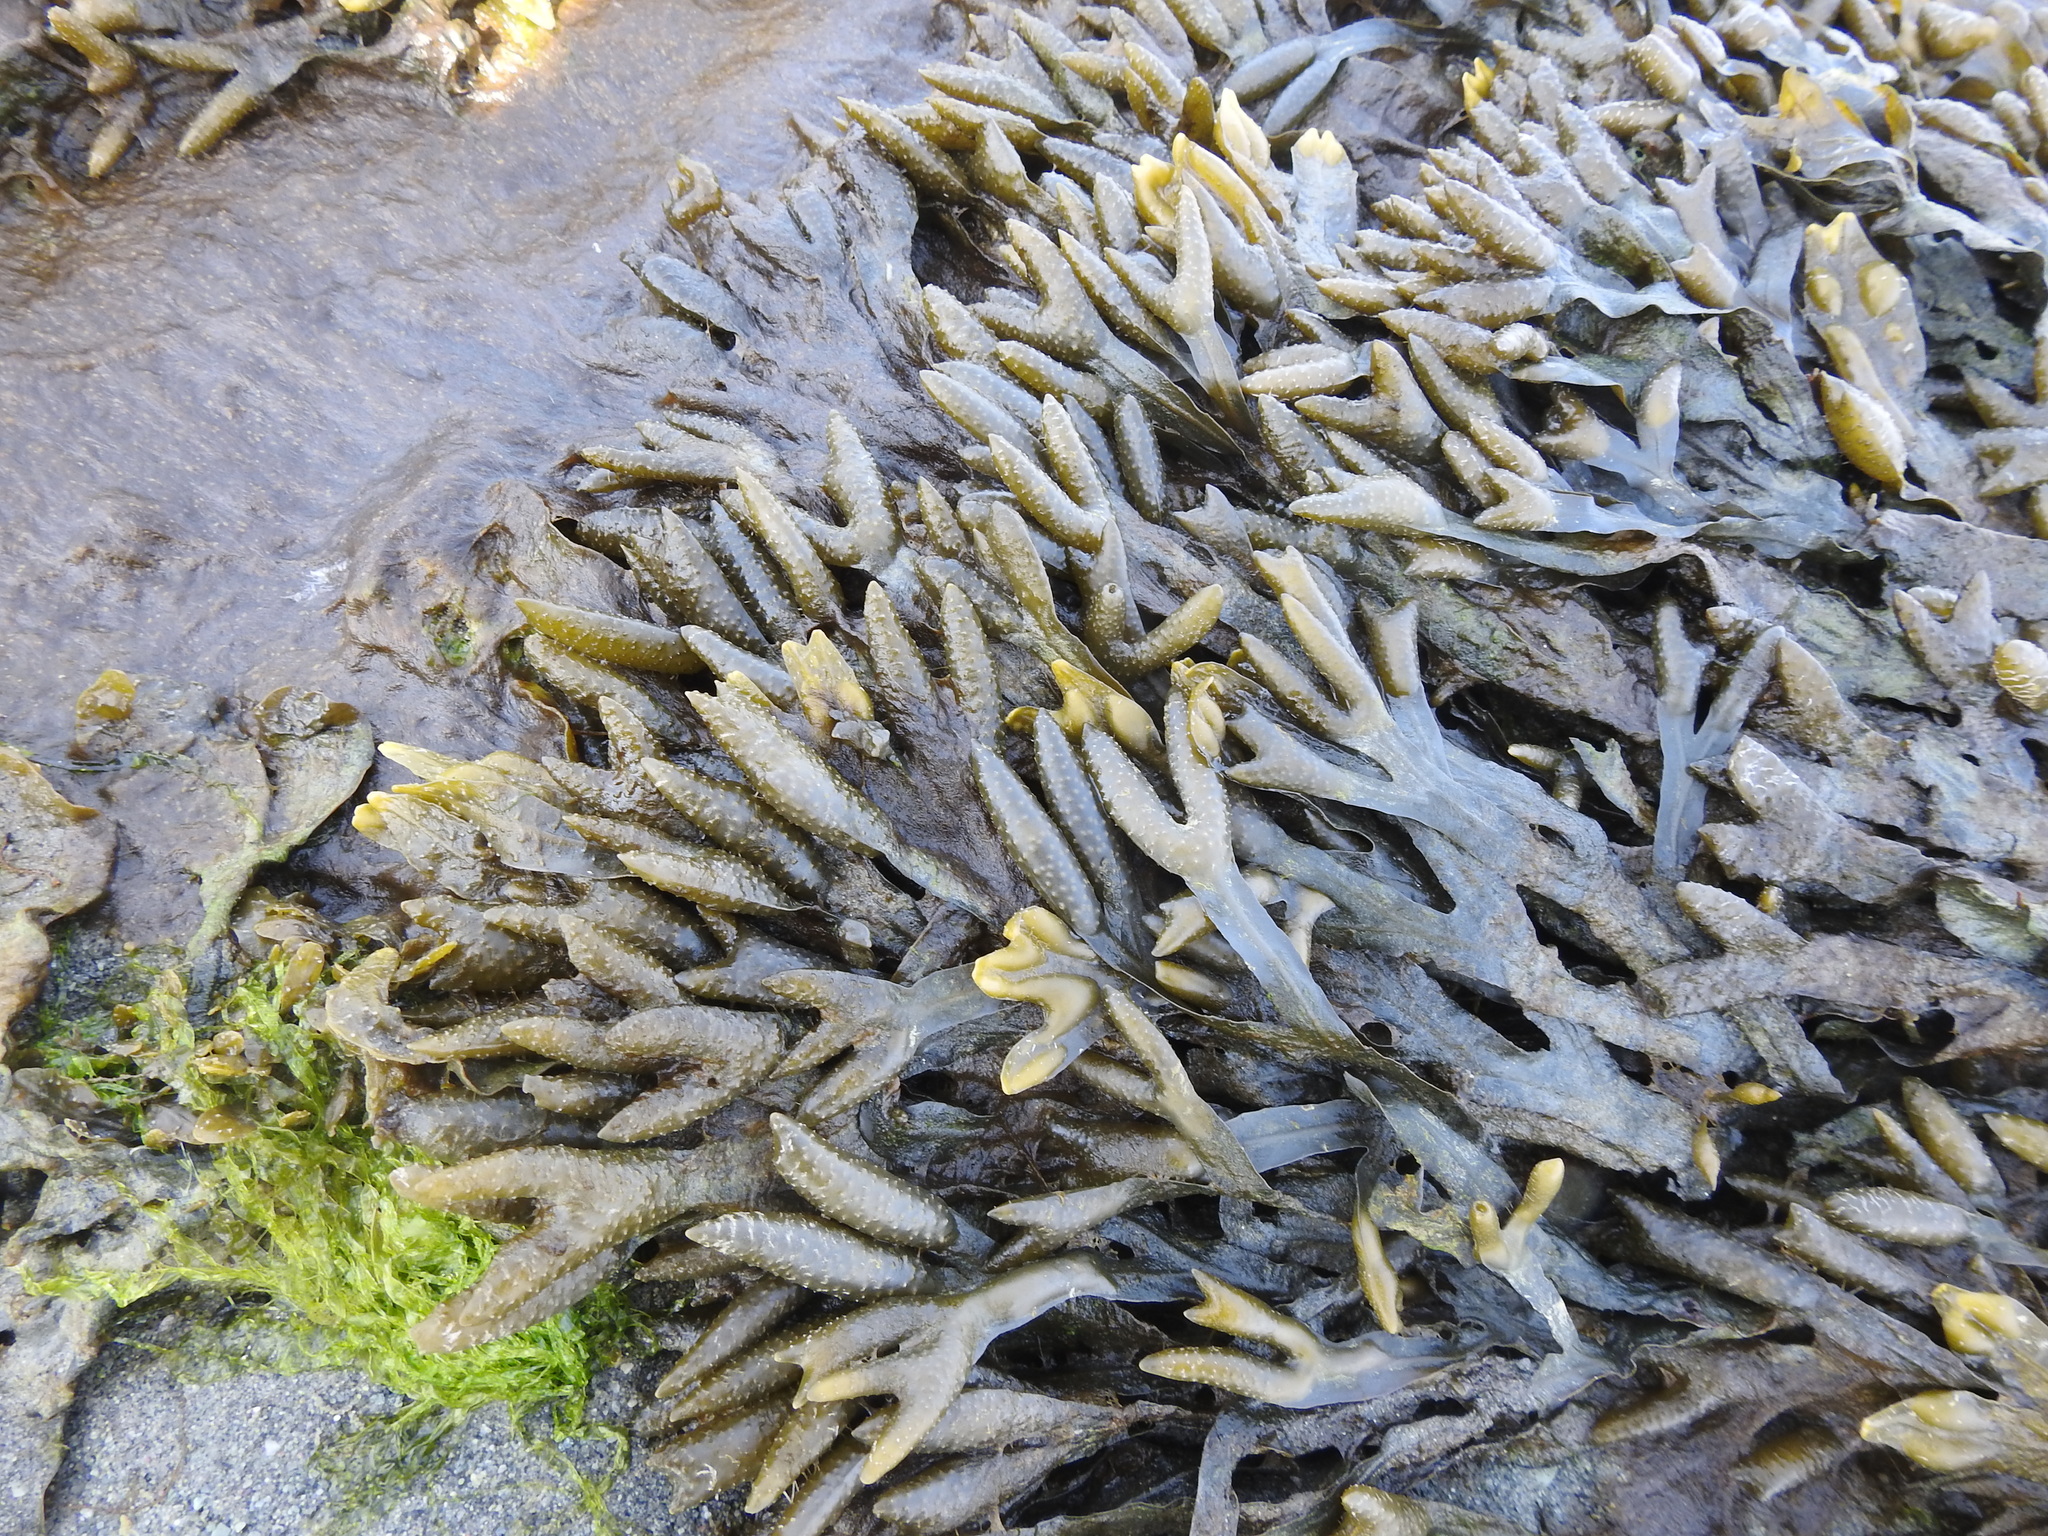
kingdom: Chromista
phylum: Ochrophyta
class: Phaeophyceae
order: Fucales
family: Fucaceae
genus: Fucus
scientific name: Fucus vesiculosus
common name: Bladder wrack
